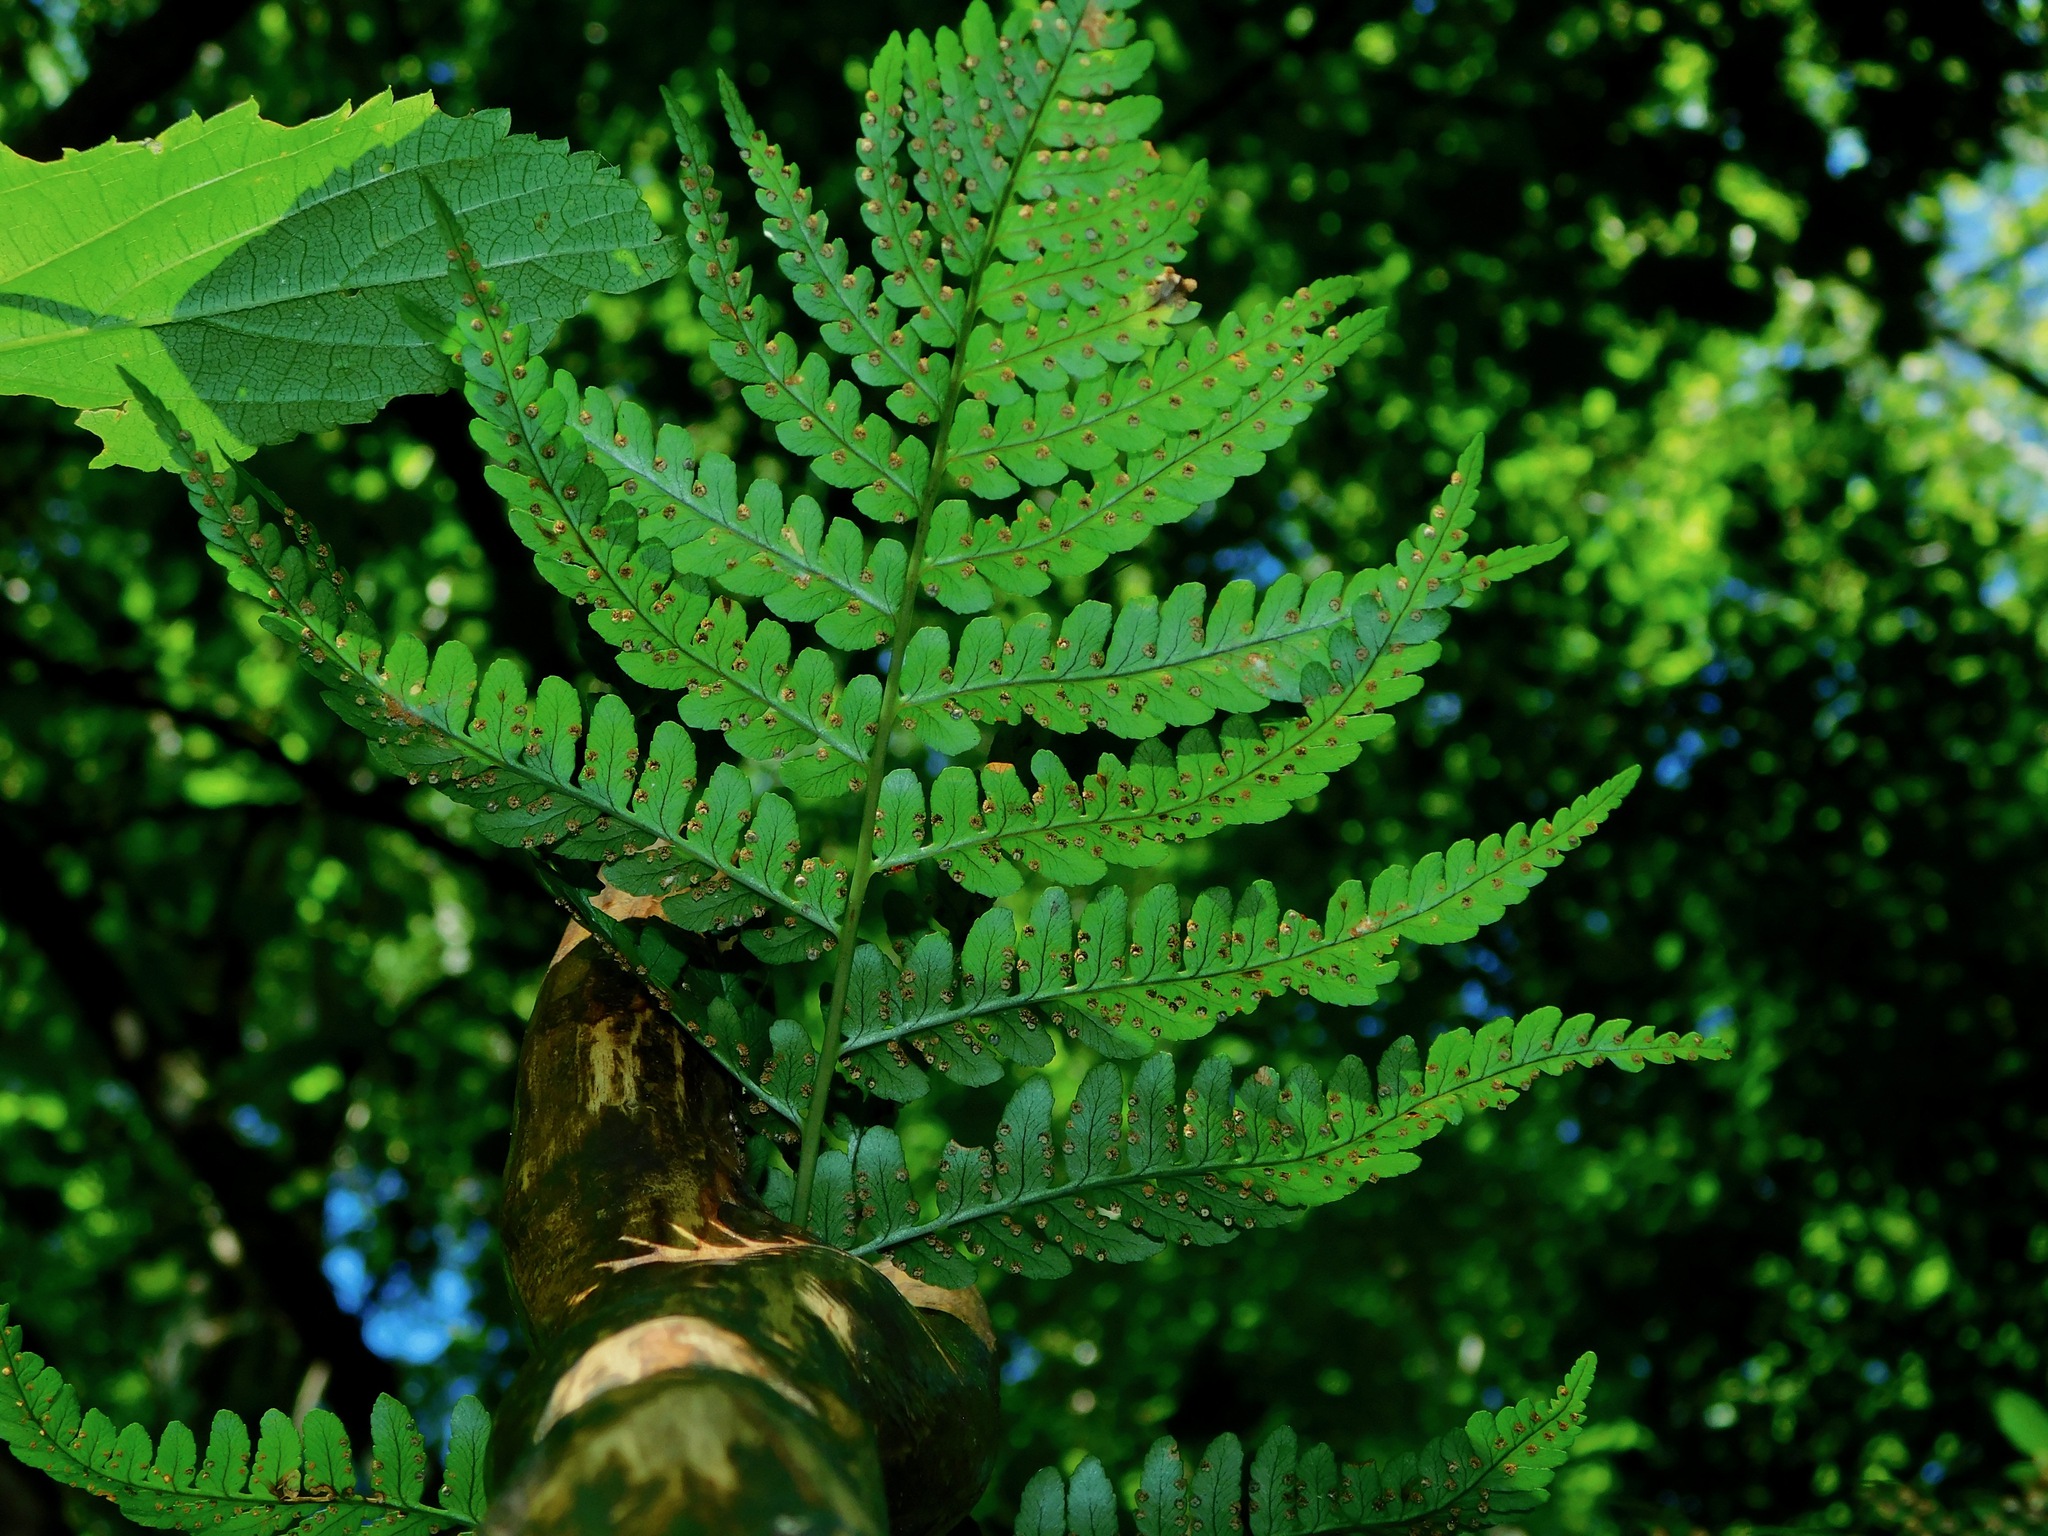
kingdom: Plantae
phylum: Tracheophyta
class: Polypodiopsida
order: Polypodiales
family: Dryopteridaceae
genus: Dryopteris
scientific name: Dryopteris marginalis
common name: Marginal wood fern
